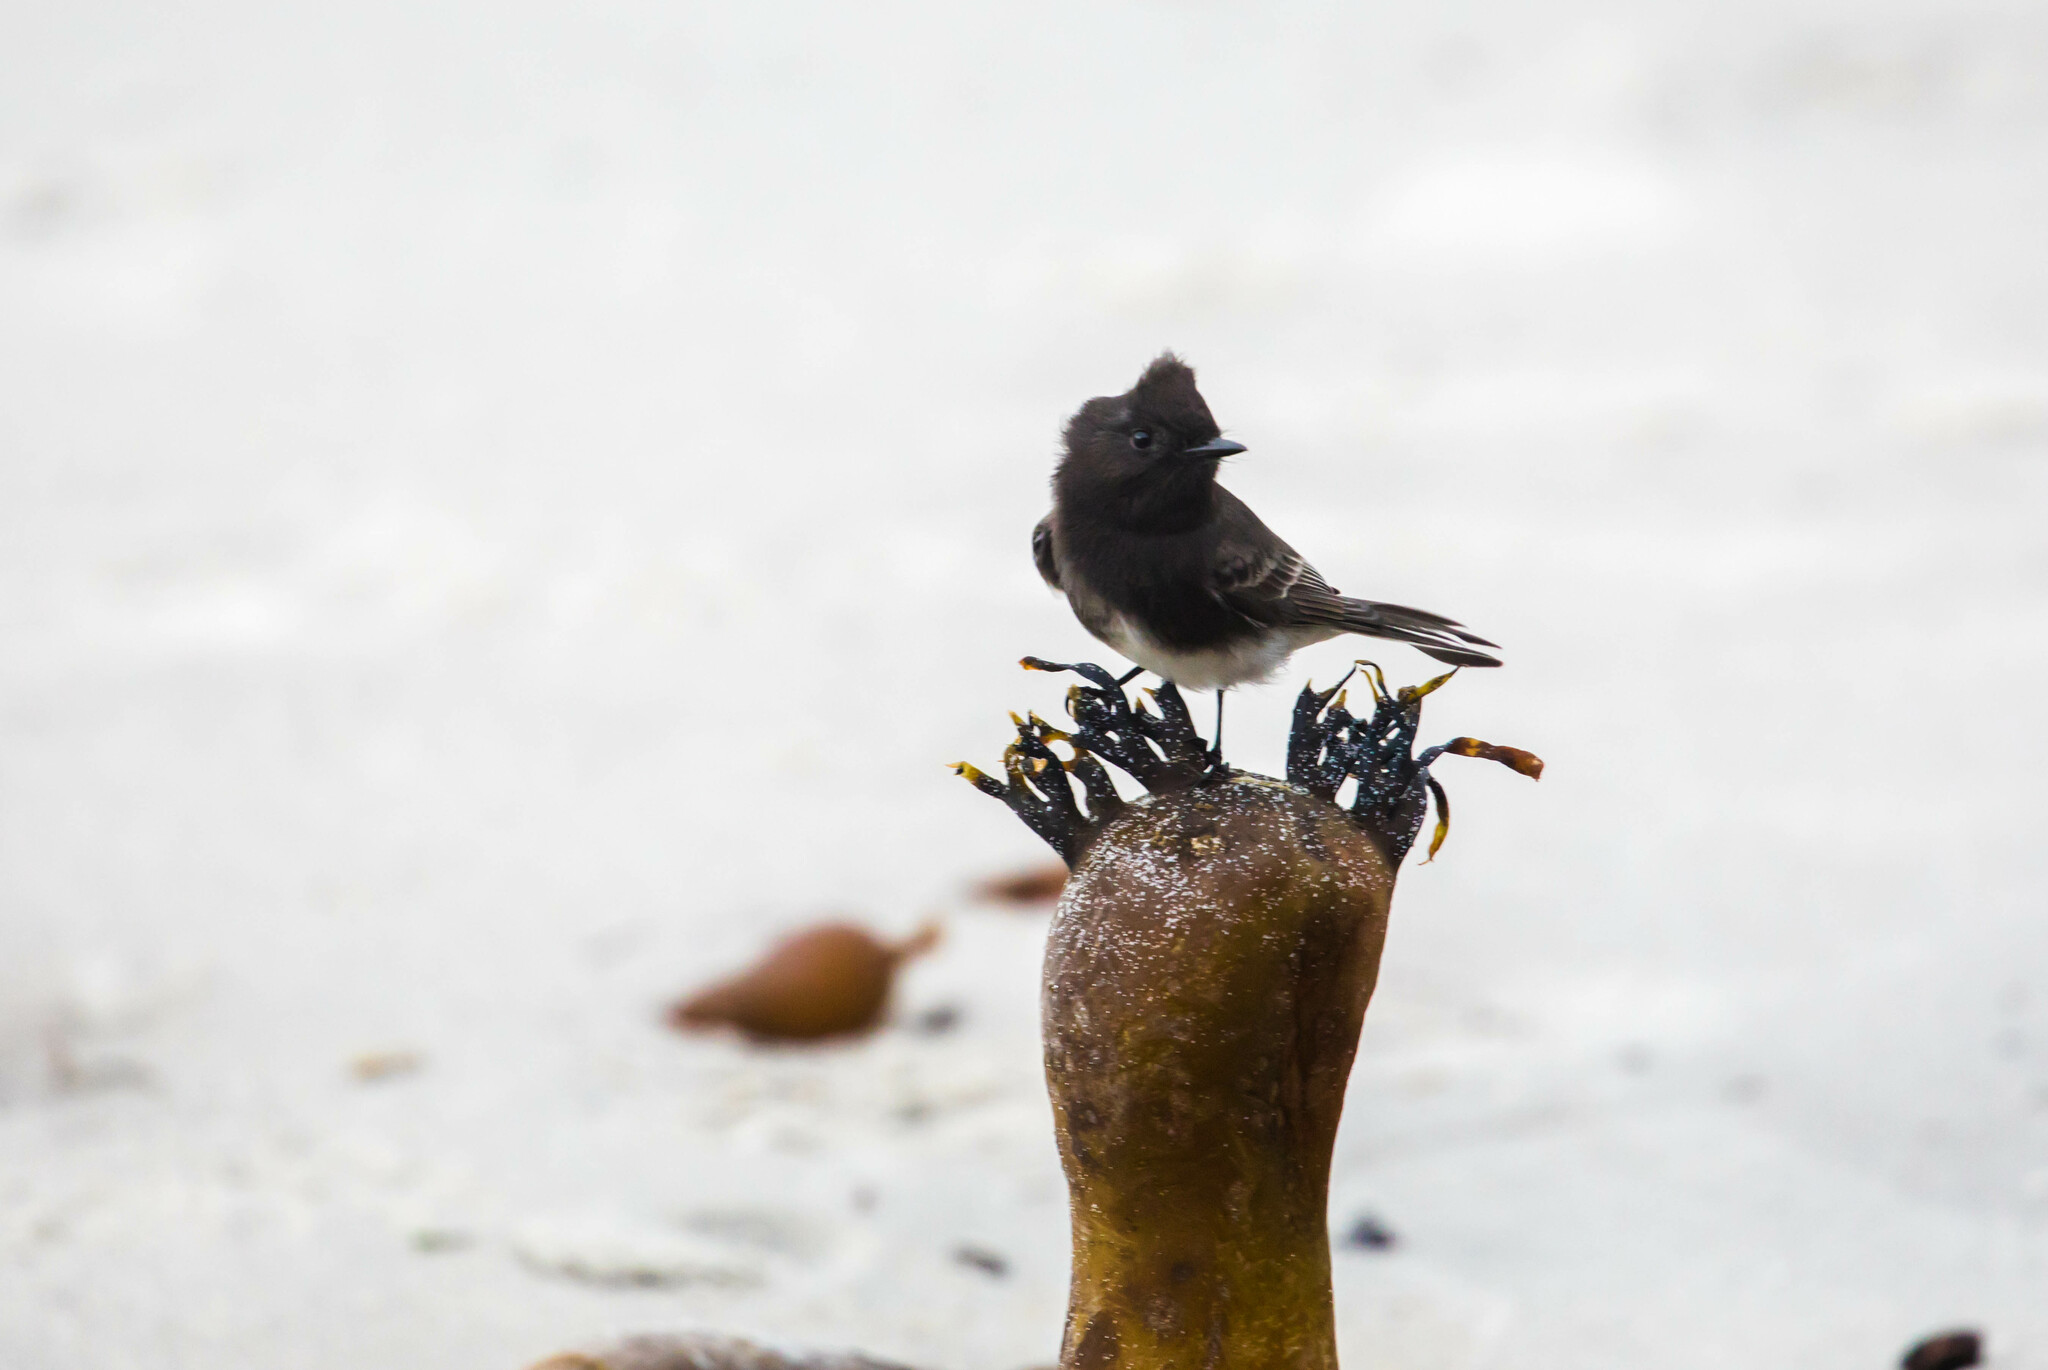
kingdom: Animalia
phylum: Chordata
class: Aves
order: Passeriformes
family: Tyrannidae
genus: Sayornis
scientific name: Sayornis nigricans
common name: Black phoebe
